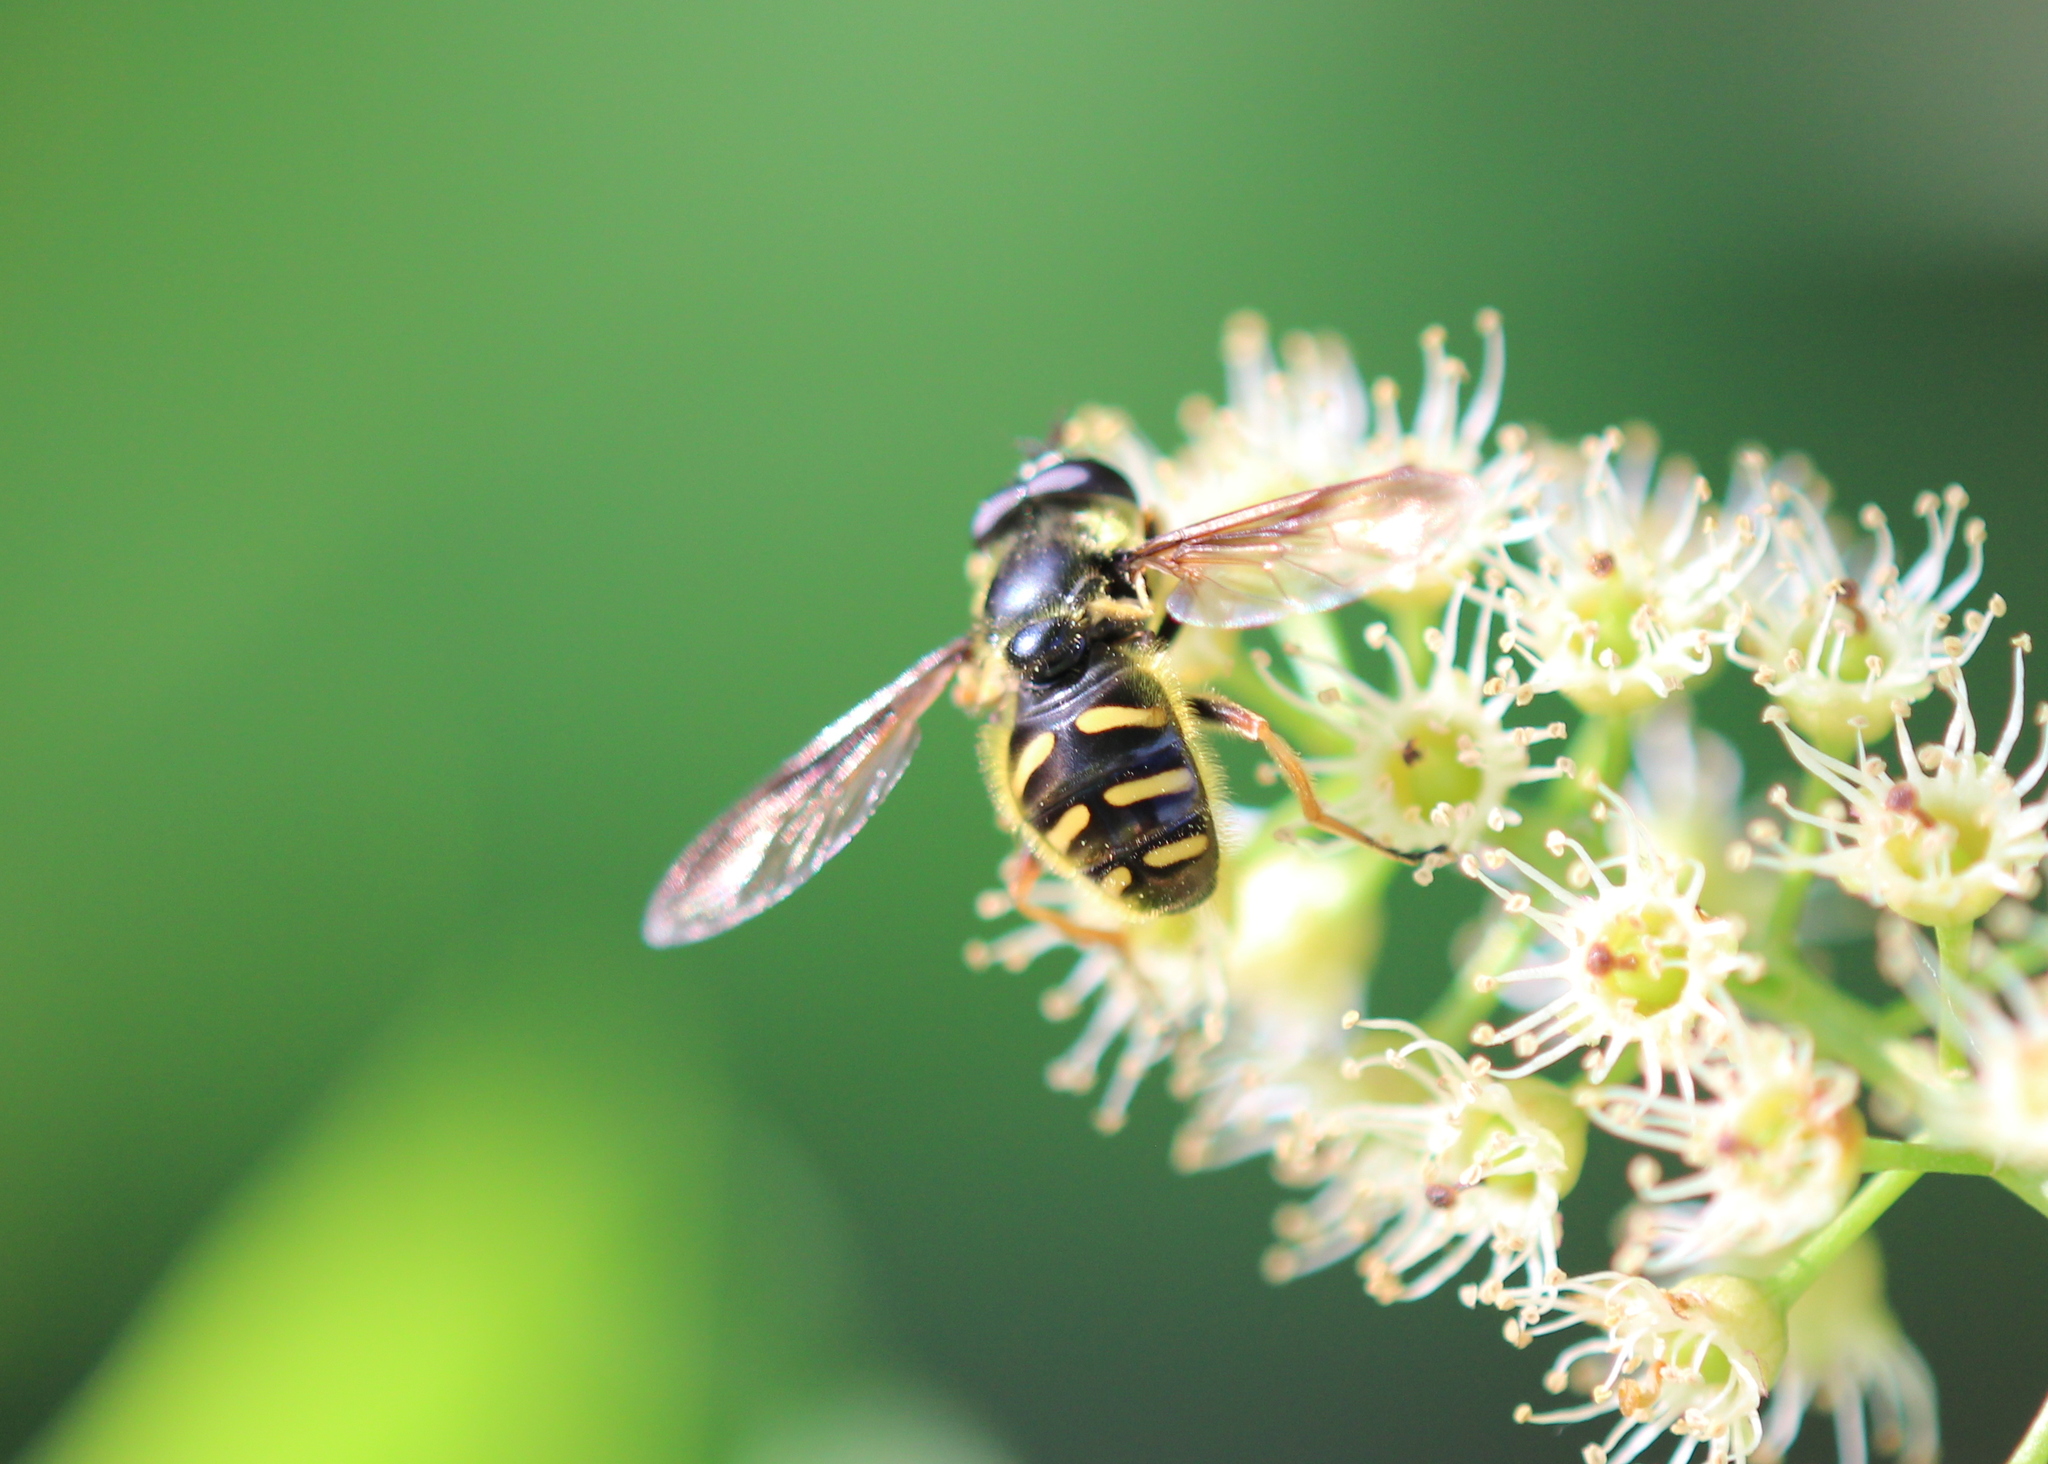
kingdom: Animalia
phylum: Arthropoda
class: Insecta
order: Diptera
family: Syrphidae
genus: Sericomyia
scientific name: Sericomyia chrysotoxoides
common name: Oblique-banded pond fly
